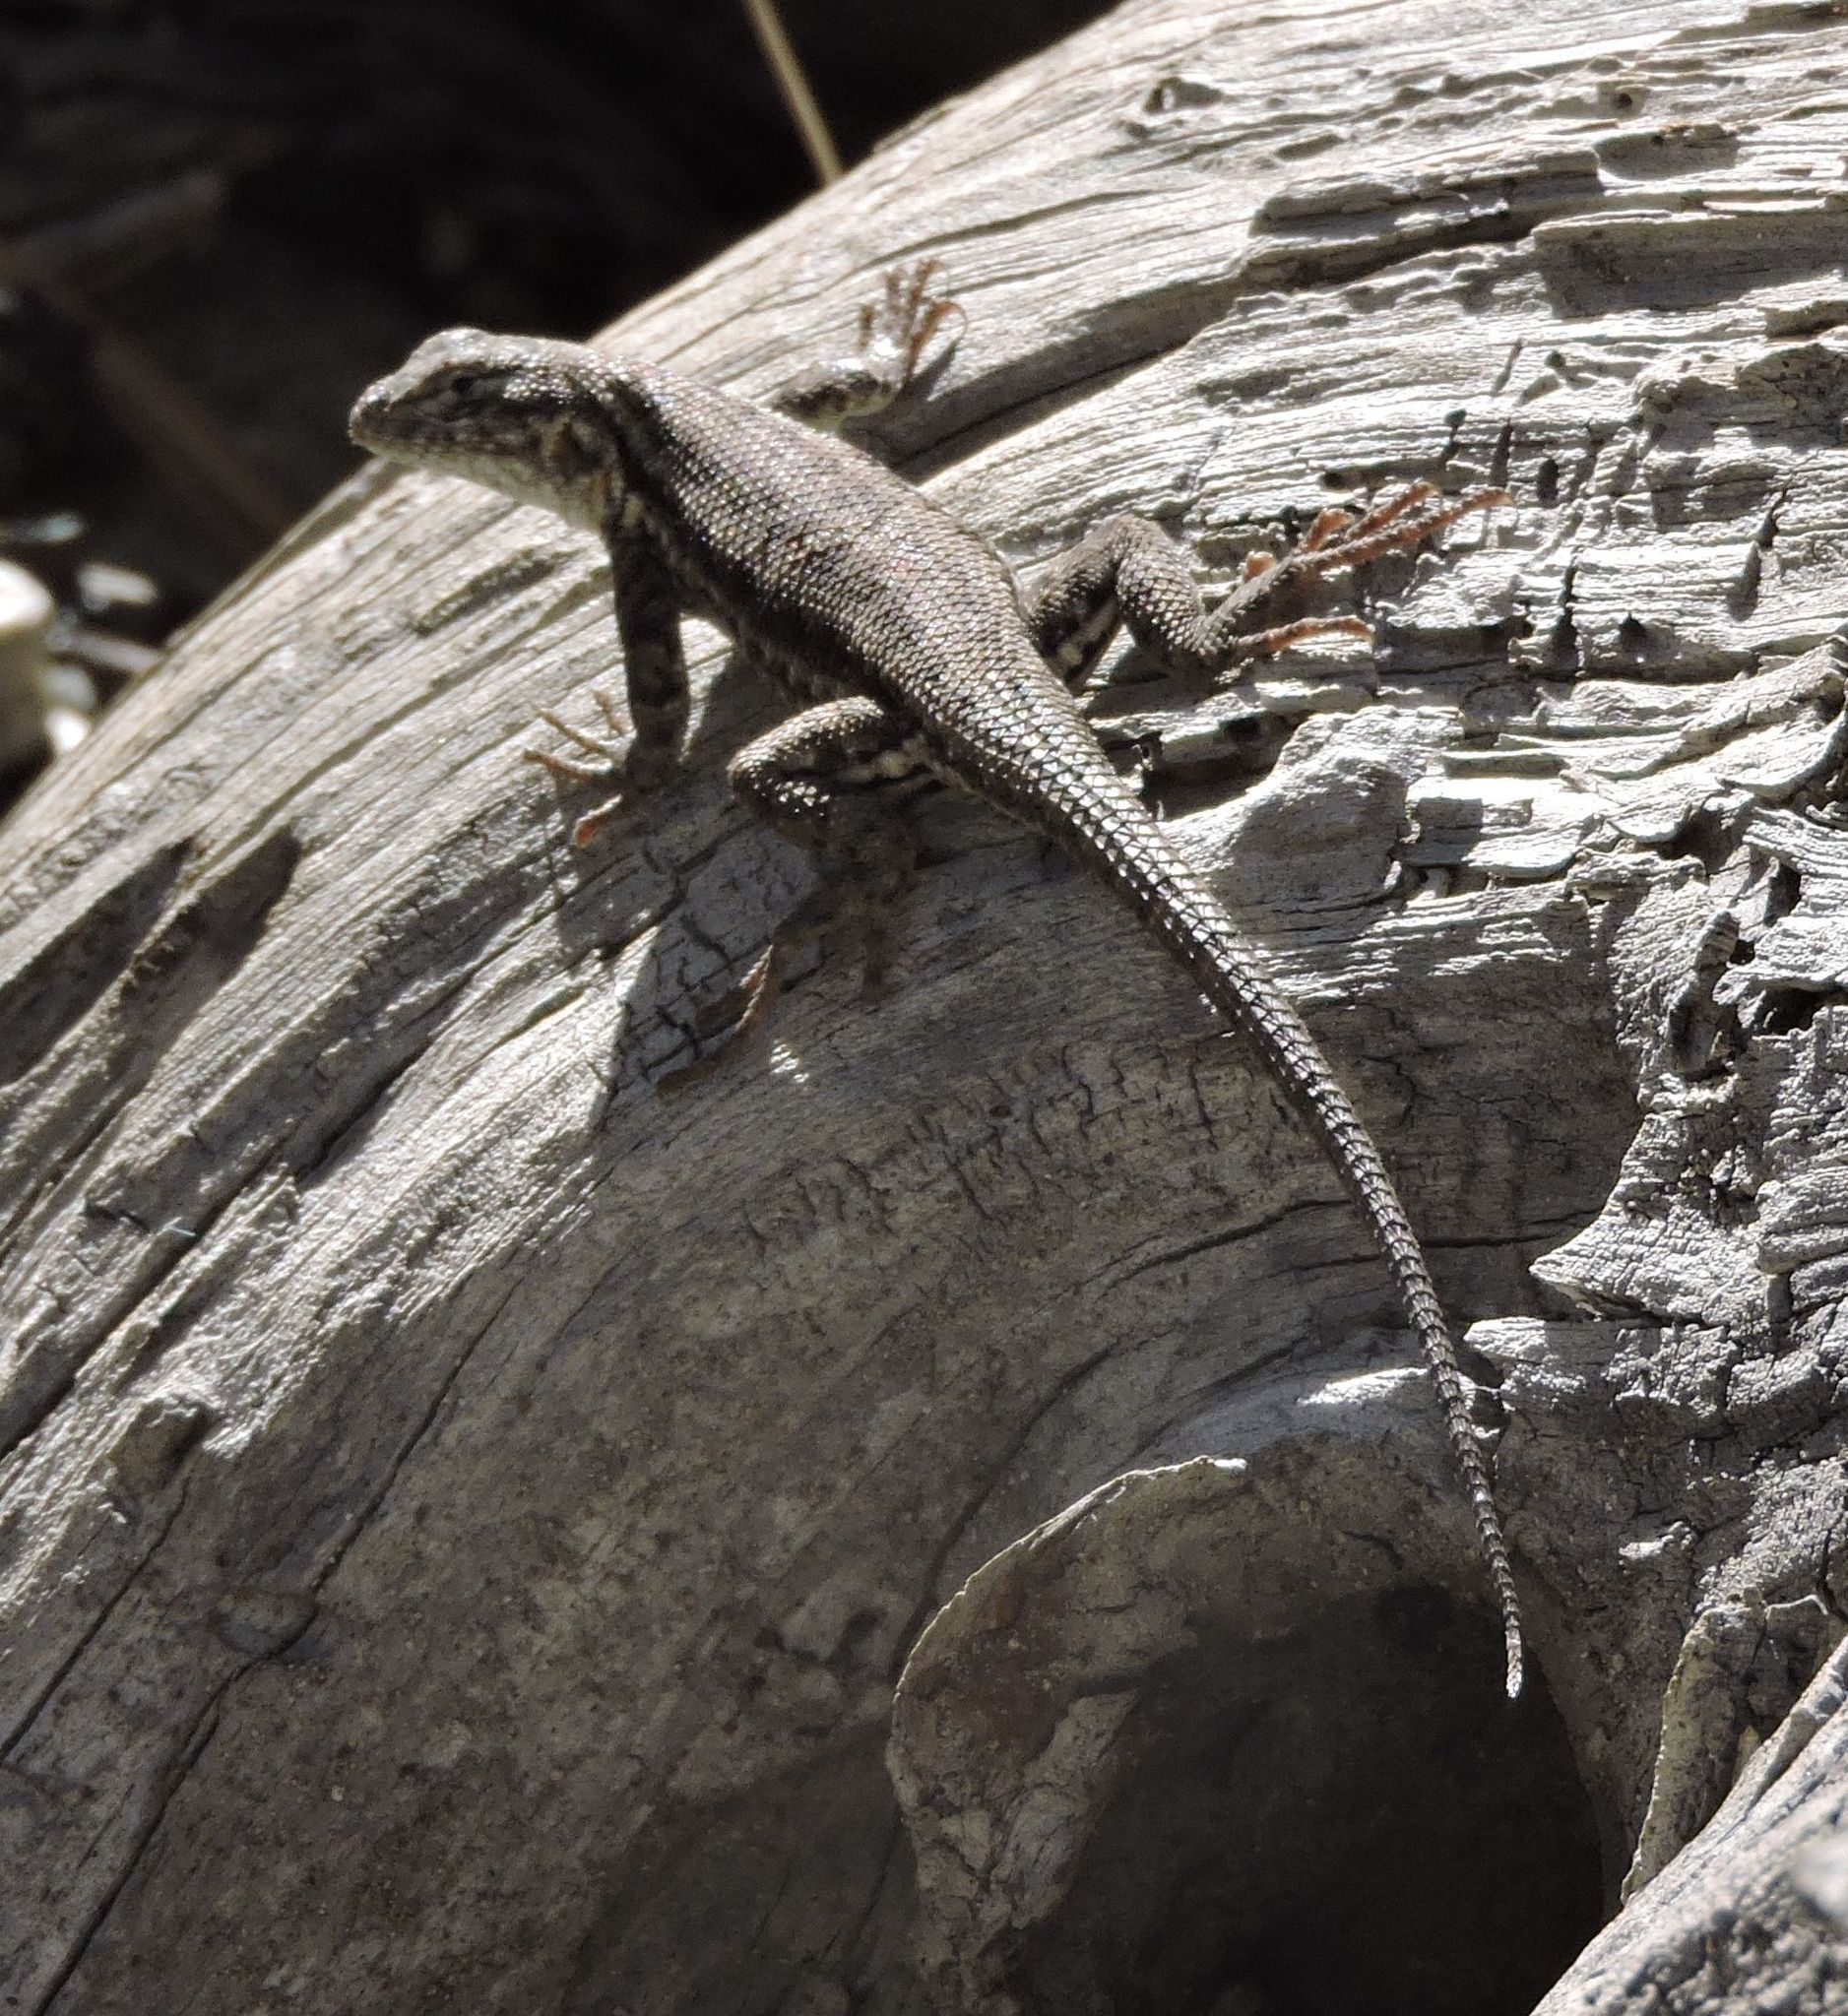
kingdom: Animalia
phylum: Chordata
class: Squamata
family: Phrynosomatidae
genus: Sceloporus
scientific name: Sceloporus occidentalis
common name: Western fence lizard
